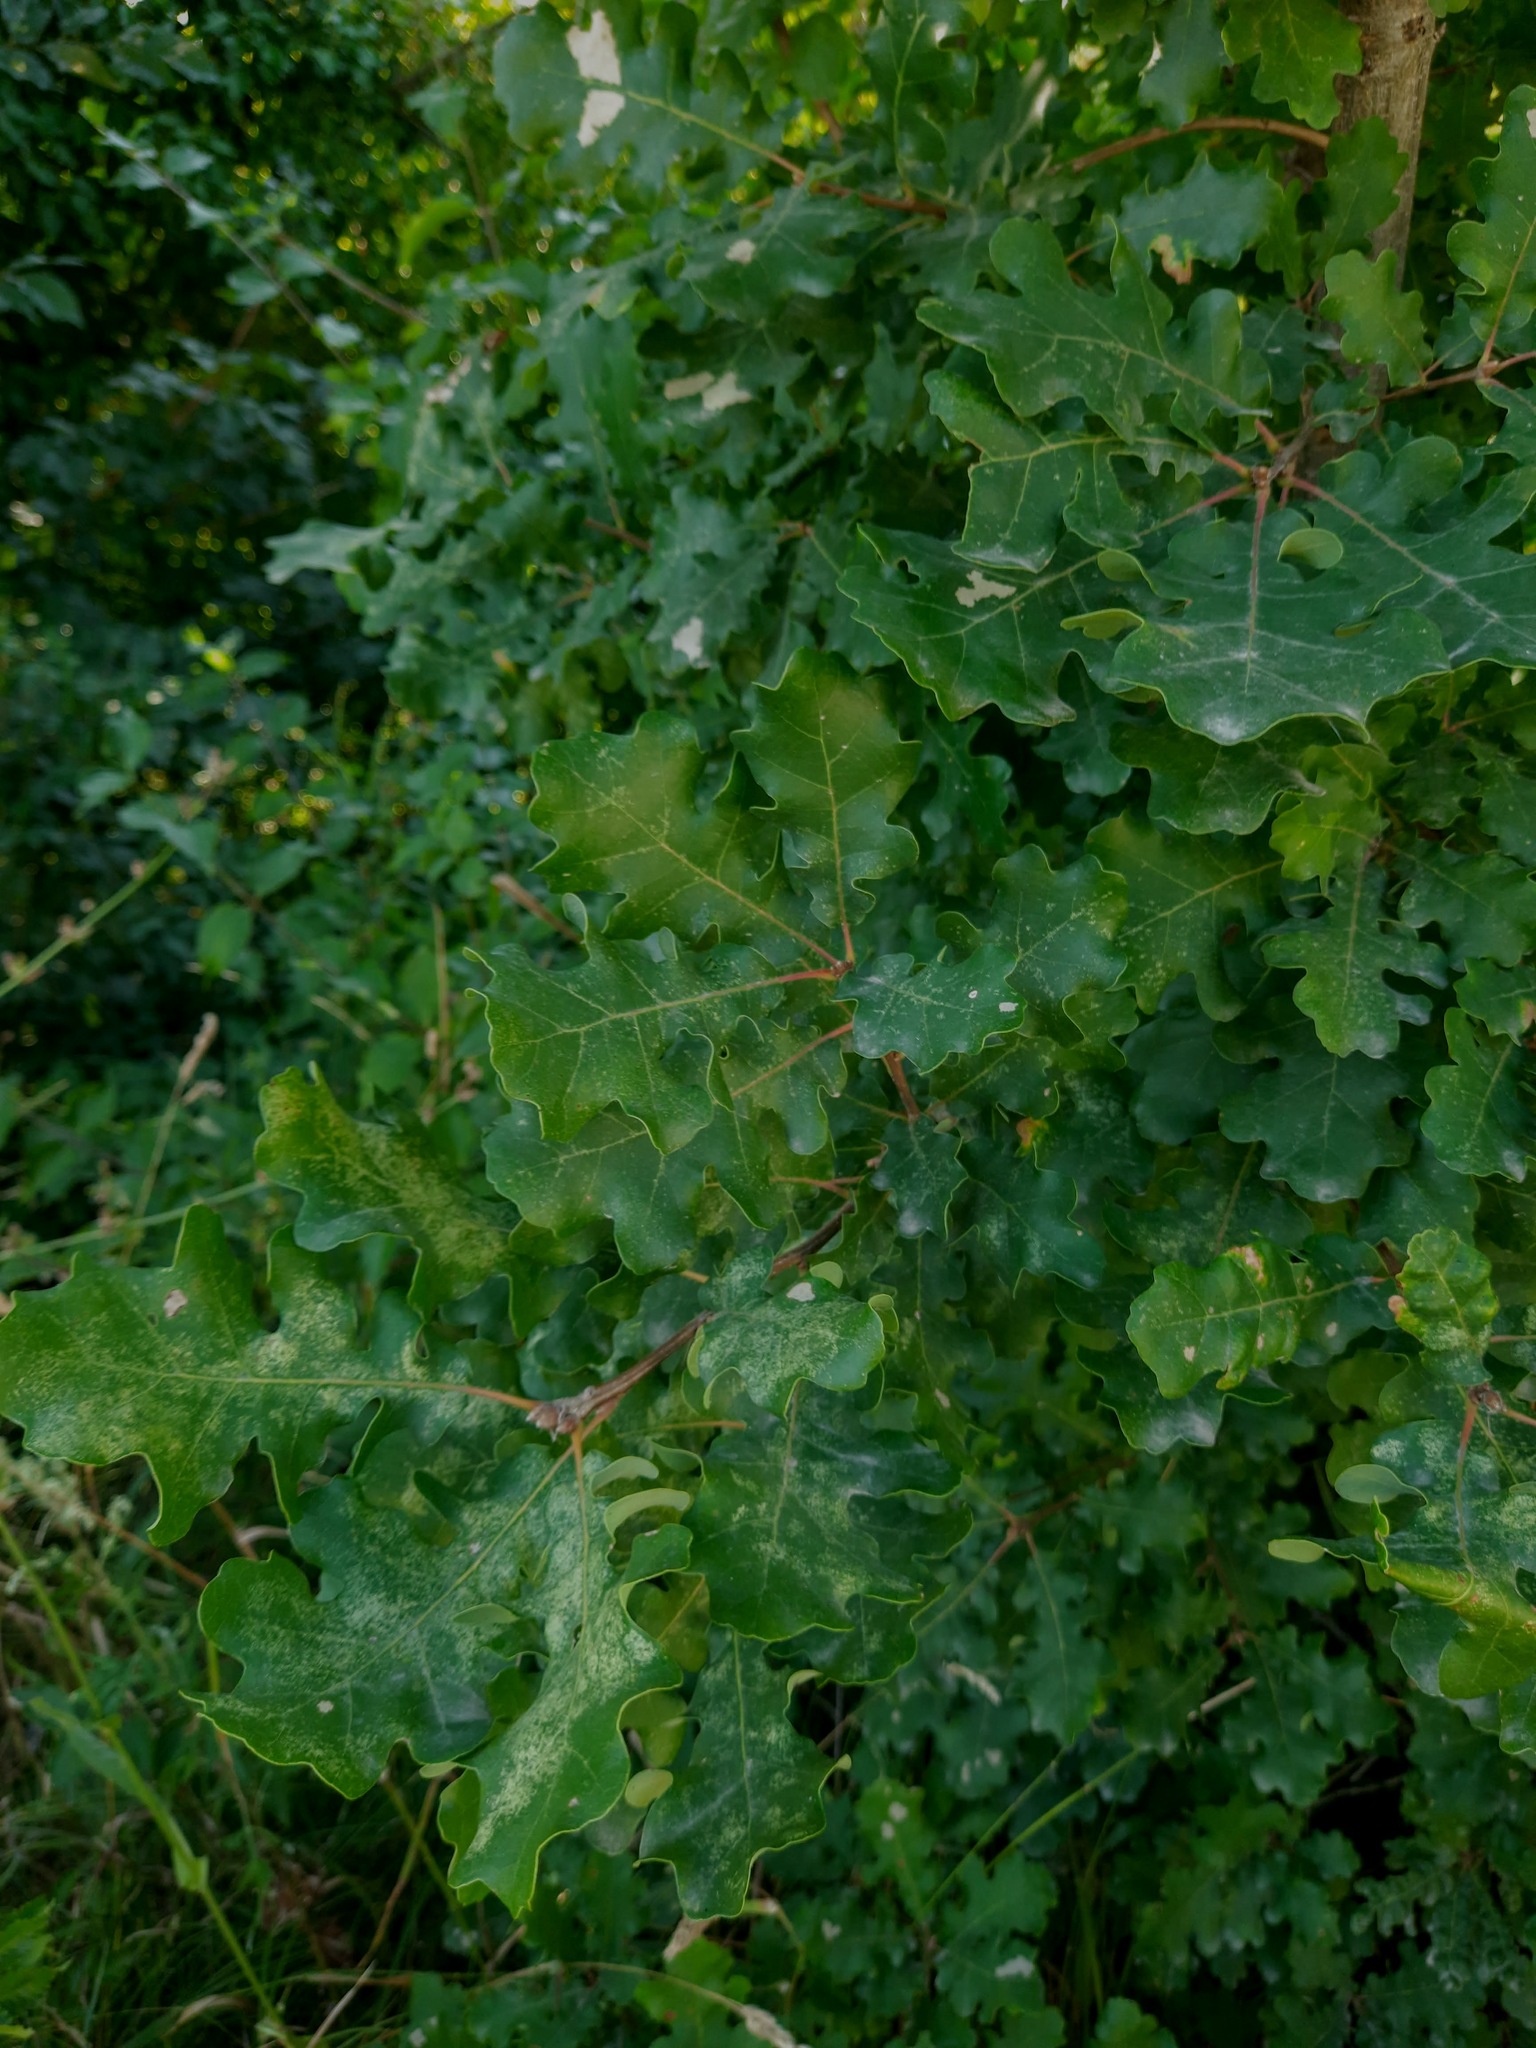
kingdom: Plantae
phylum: Tracheophyta
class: Magnoliopsida
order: Fagales
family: Fagaceae
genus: Quercus
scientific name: Quercus pubescens
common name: Downy oak
